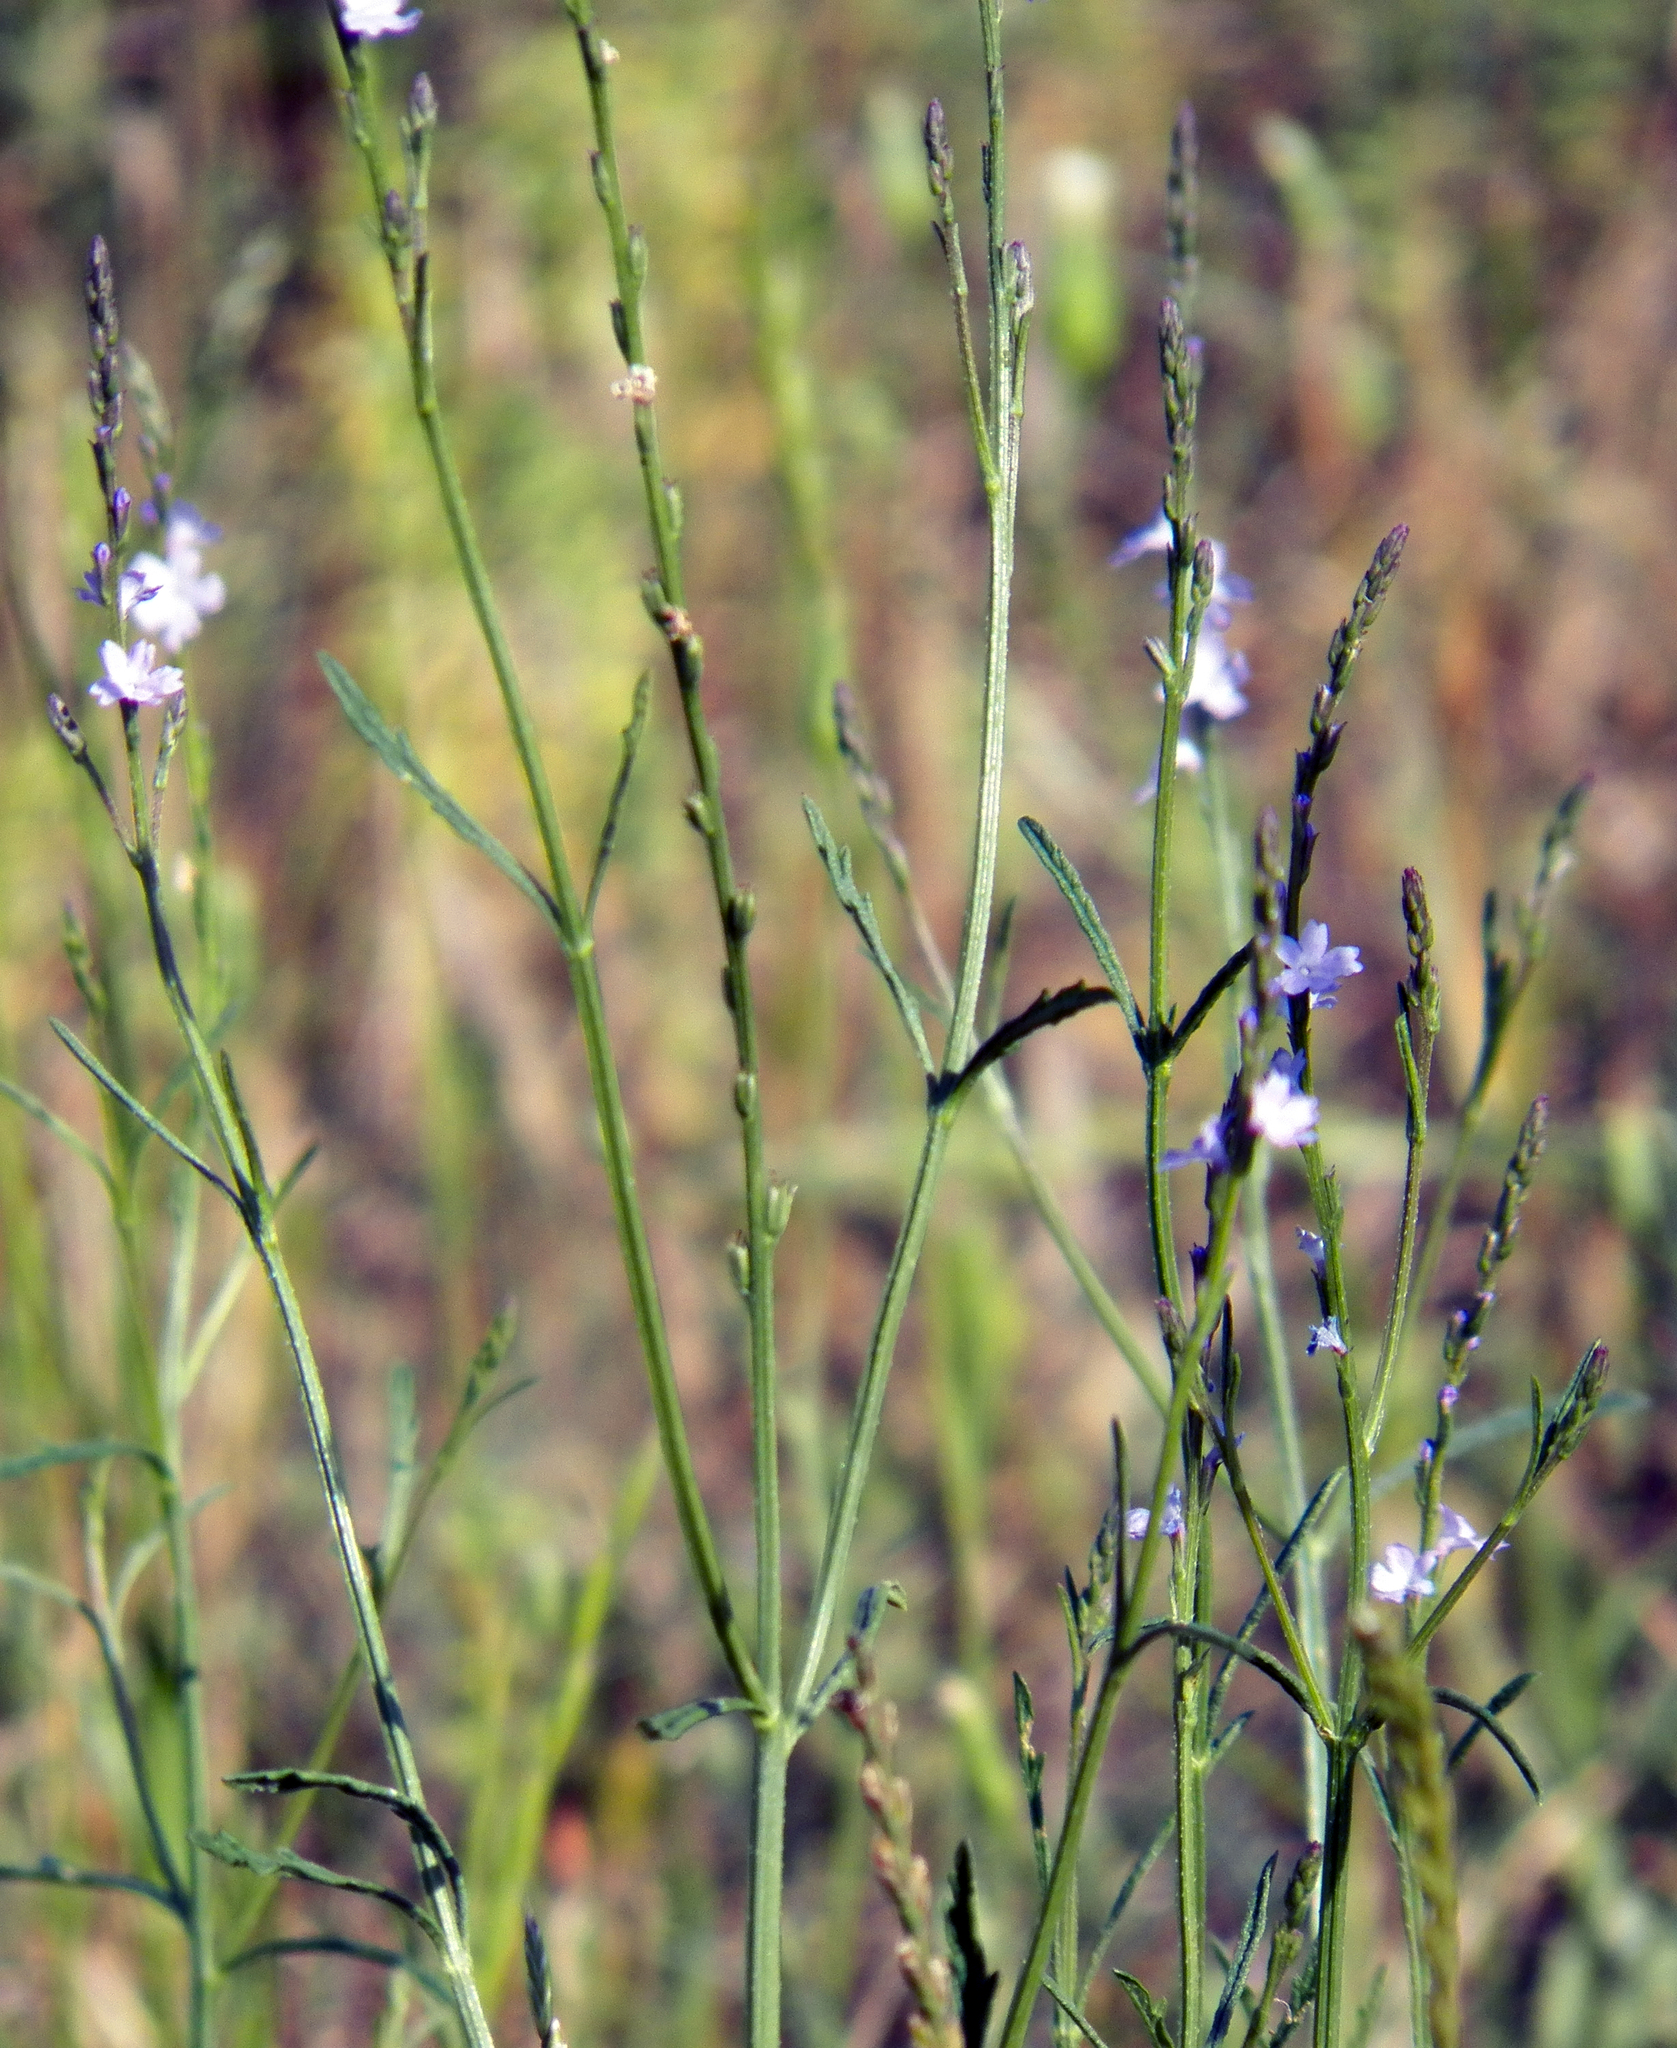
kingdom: Plantae
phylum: Tracheophyta
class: Magnoliopsida
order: Lamiales
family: Verbenaceae
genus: Verbena
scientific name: Verbena halei
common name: Texas vervain
